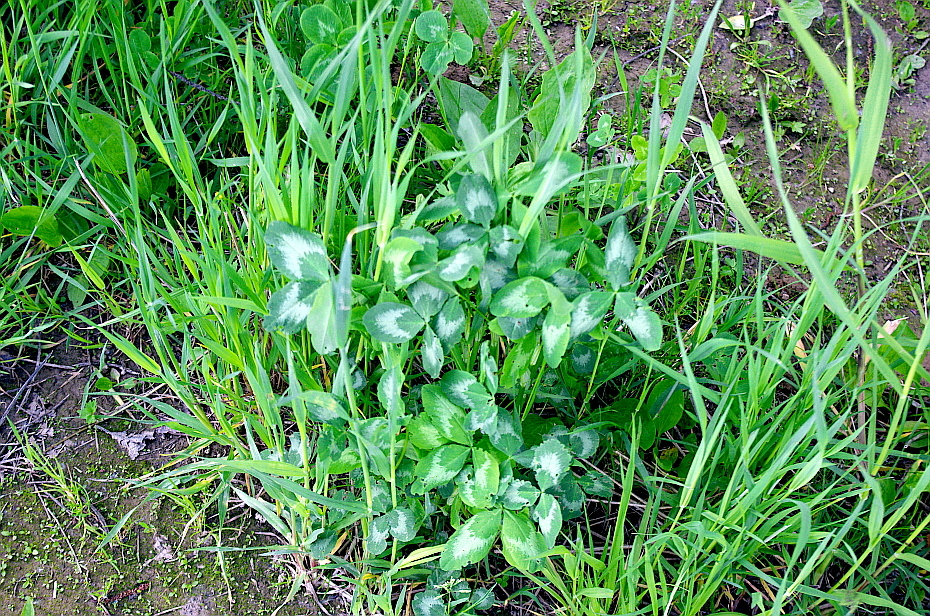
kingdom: Plantae
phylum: Tracheophyta
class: Magnoliopsida
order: Fabales
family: Fabaceae
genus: Trifolium
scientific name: Trifolium pratense
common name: Red clover
